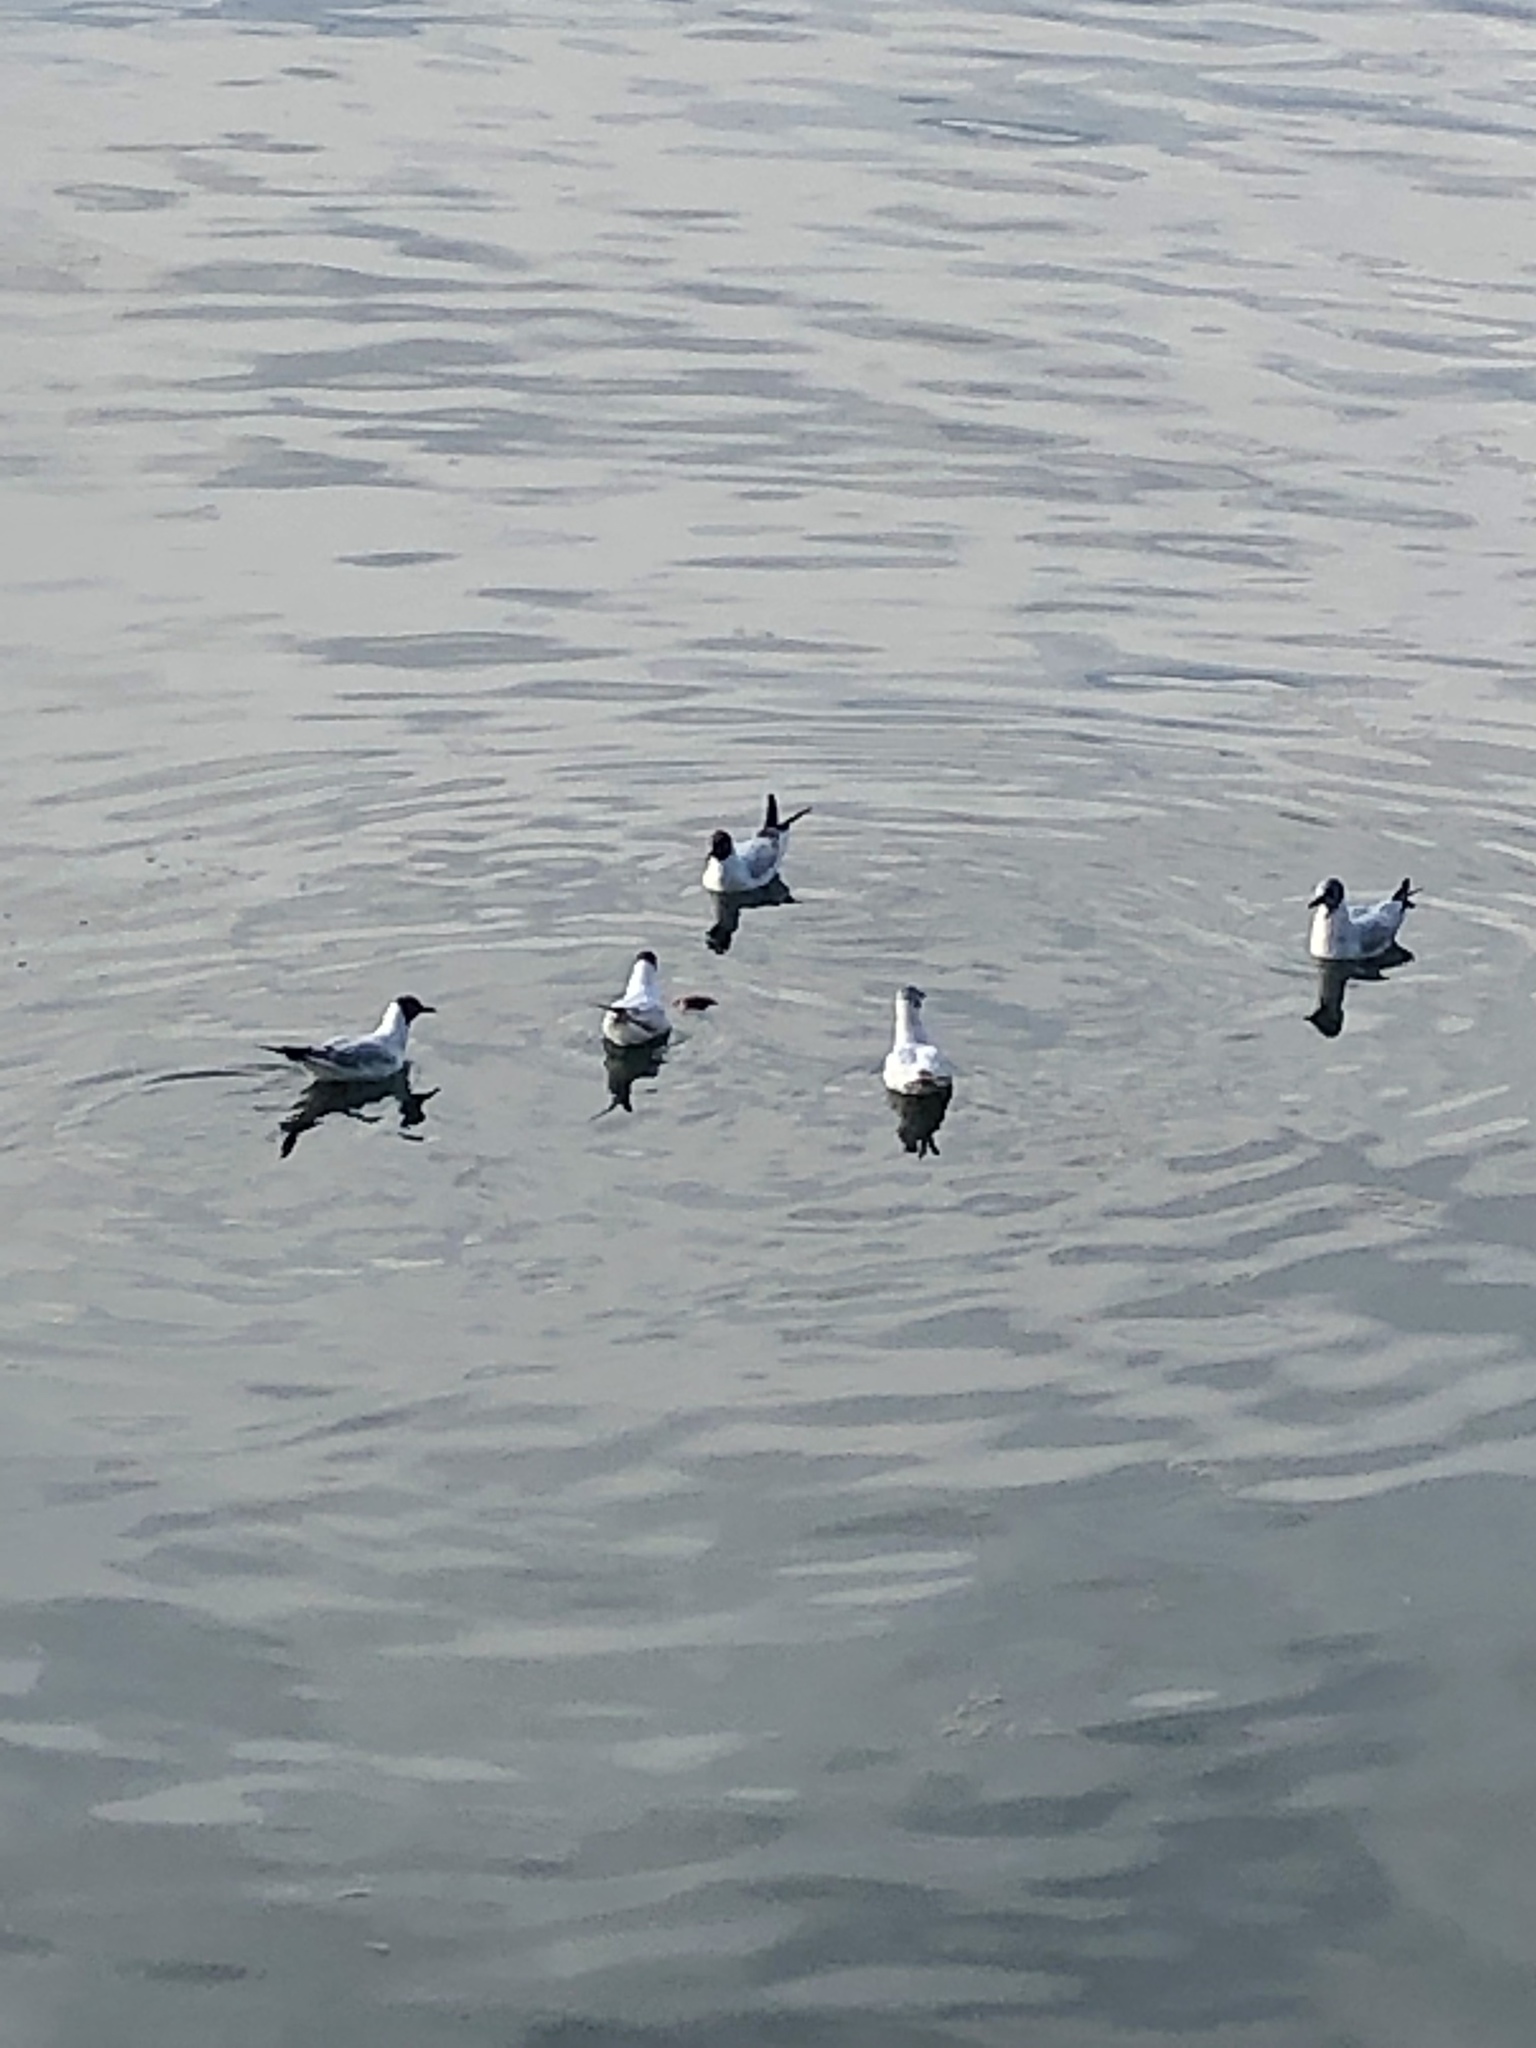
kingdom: Animalia
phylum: Chordata
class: Aves
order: Charadriiformes
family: Laridae
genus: Chroicocephalus
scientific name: Chroicocephalus ridibundus
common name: Black-headed gull
